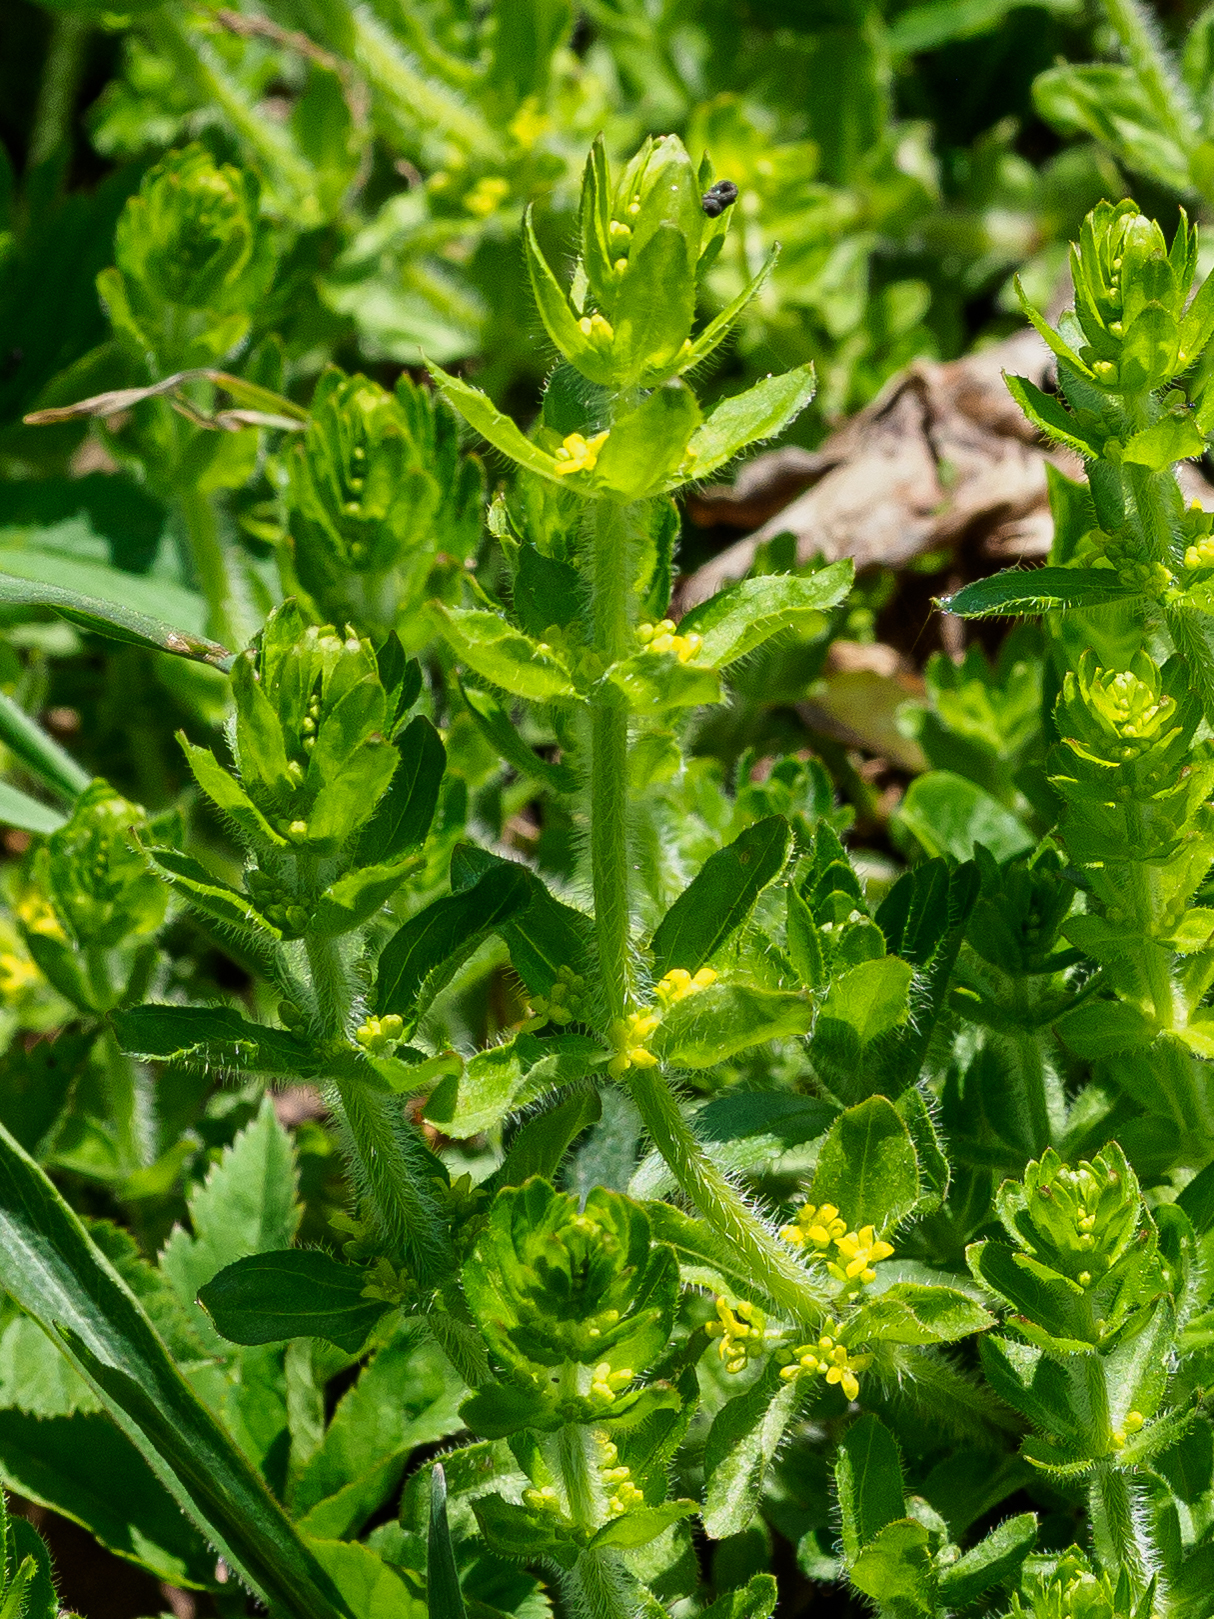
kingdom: Plantae
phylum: Tracheophyta
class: Magnoliopsida
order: Gentianales
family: Rubiaceae
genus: Cruciata
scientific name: Cruciata laevipes
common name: Crosswort
